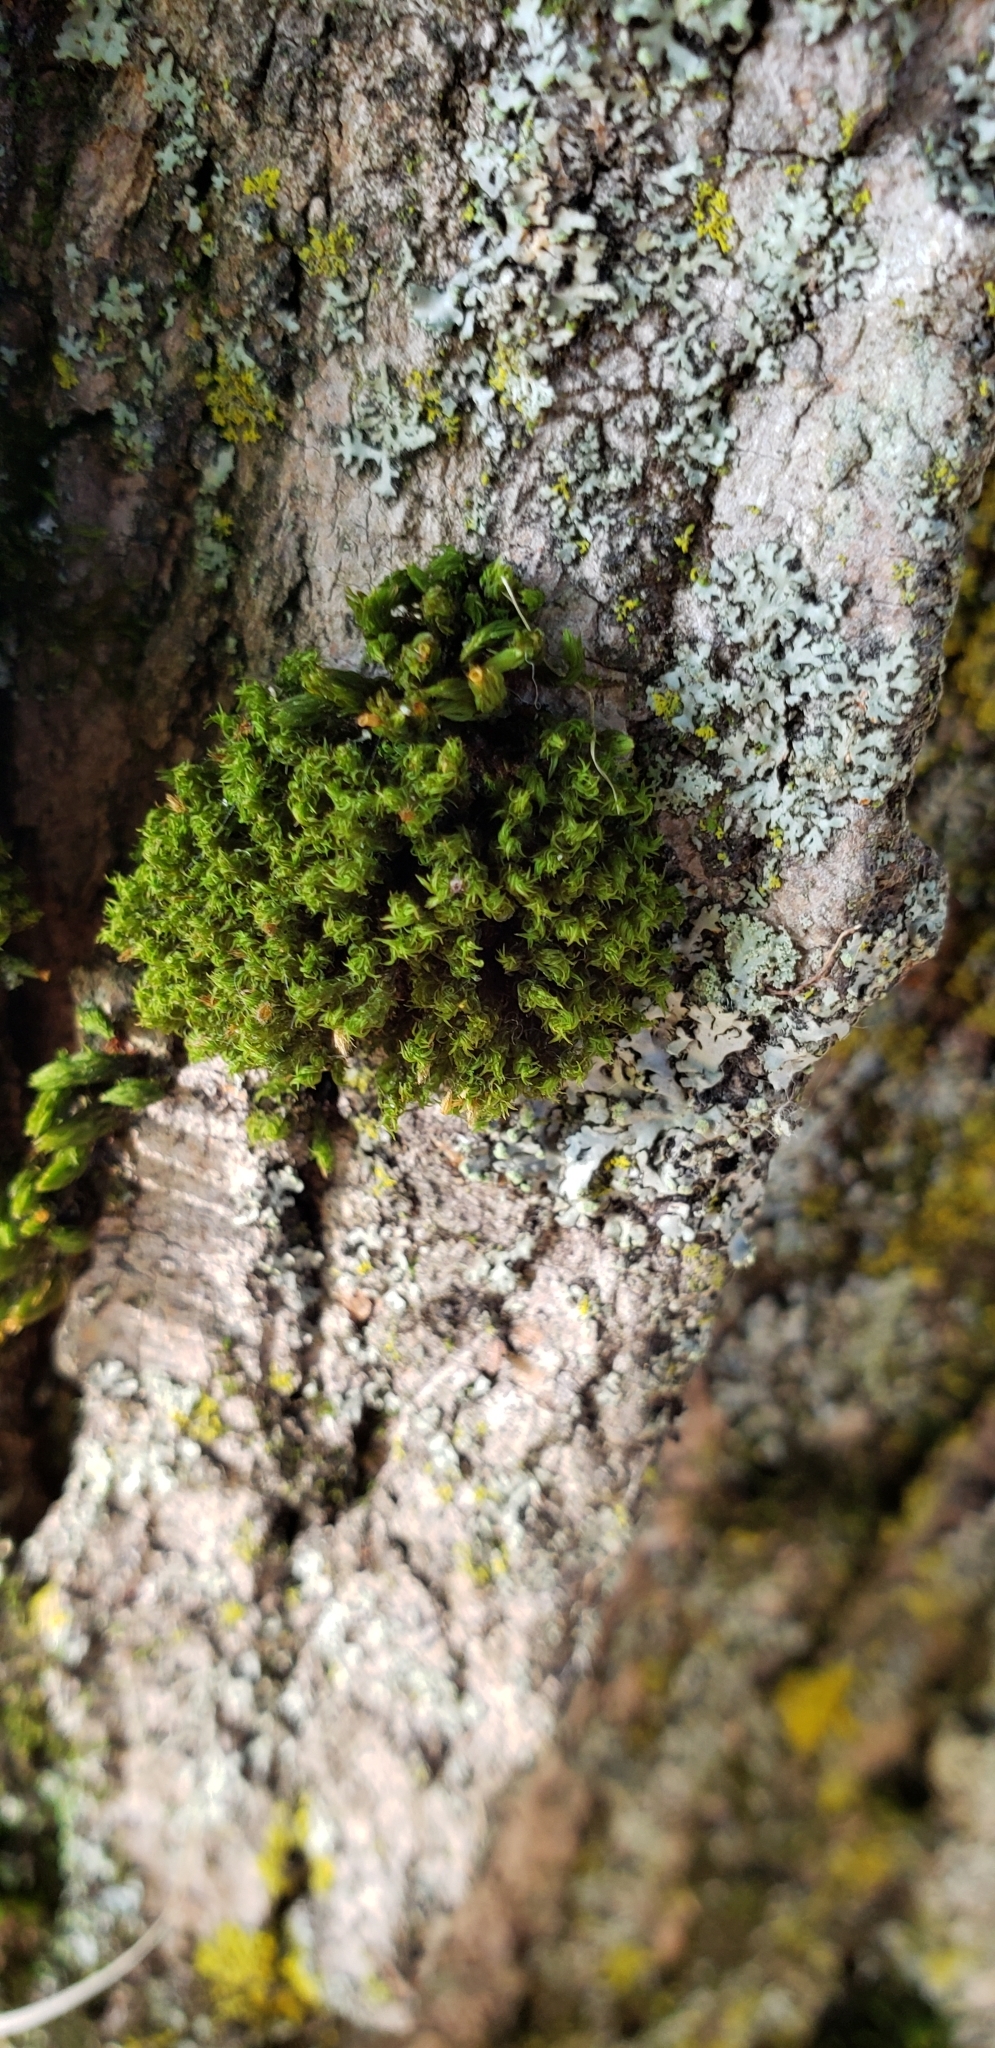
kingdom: Plantae
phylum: Bryophyta
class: Bryopsida
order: Orthotrichales
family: Orthotrichaceae
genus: Ulota
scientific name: Ulota crispa
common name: Crisped pincushion moss
